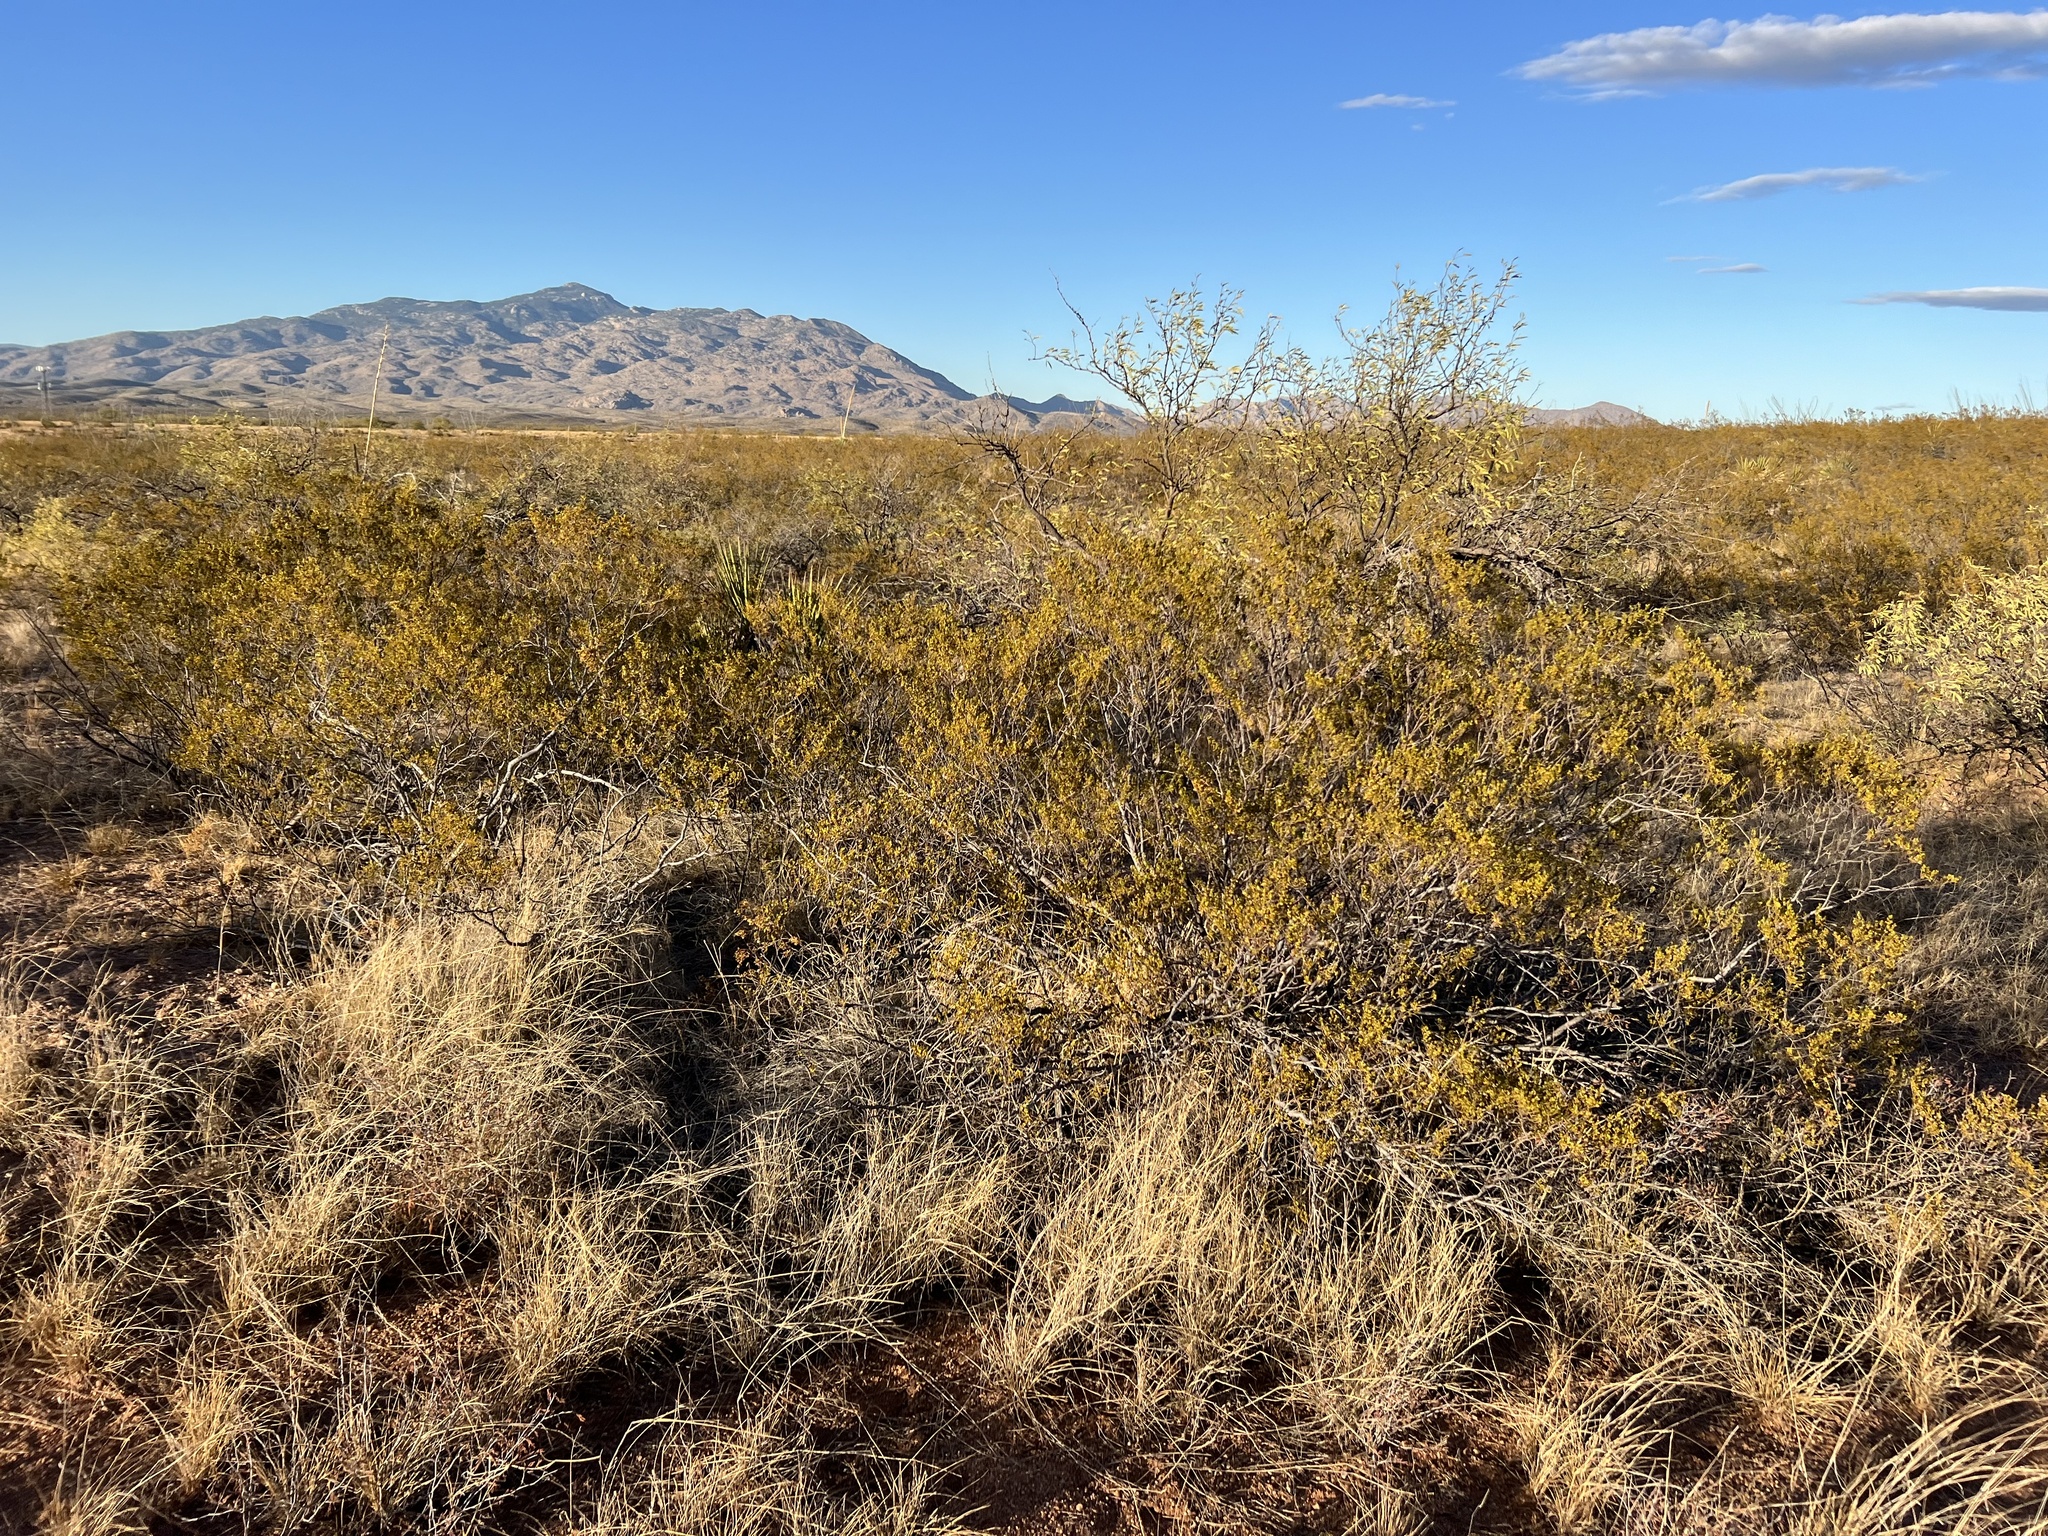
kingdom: Plantae
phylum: Tracheophyta
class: Magnoliopsida
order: Zygophyllales
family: Zygophyllaceae
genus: Larrea
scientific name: Larrea tridentata
